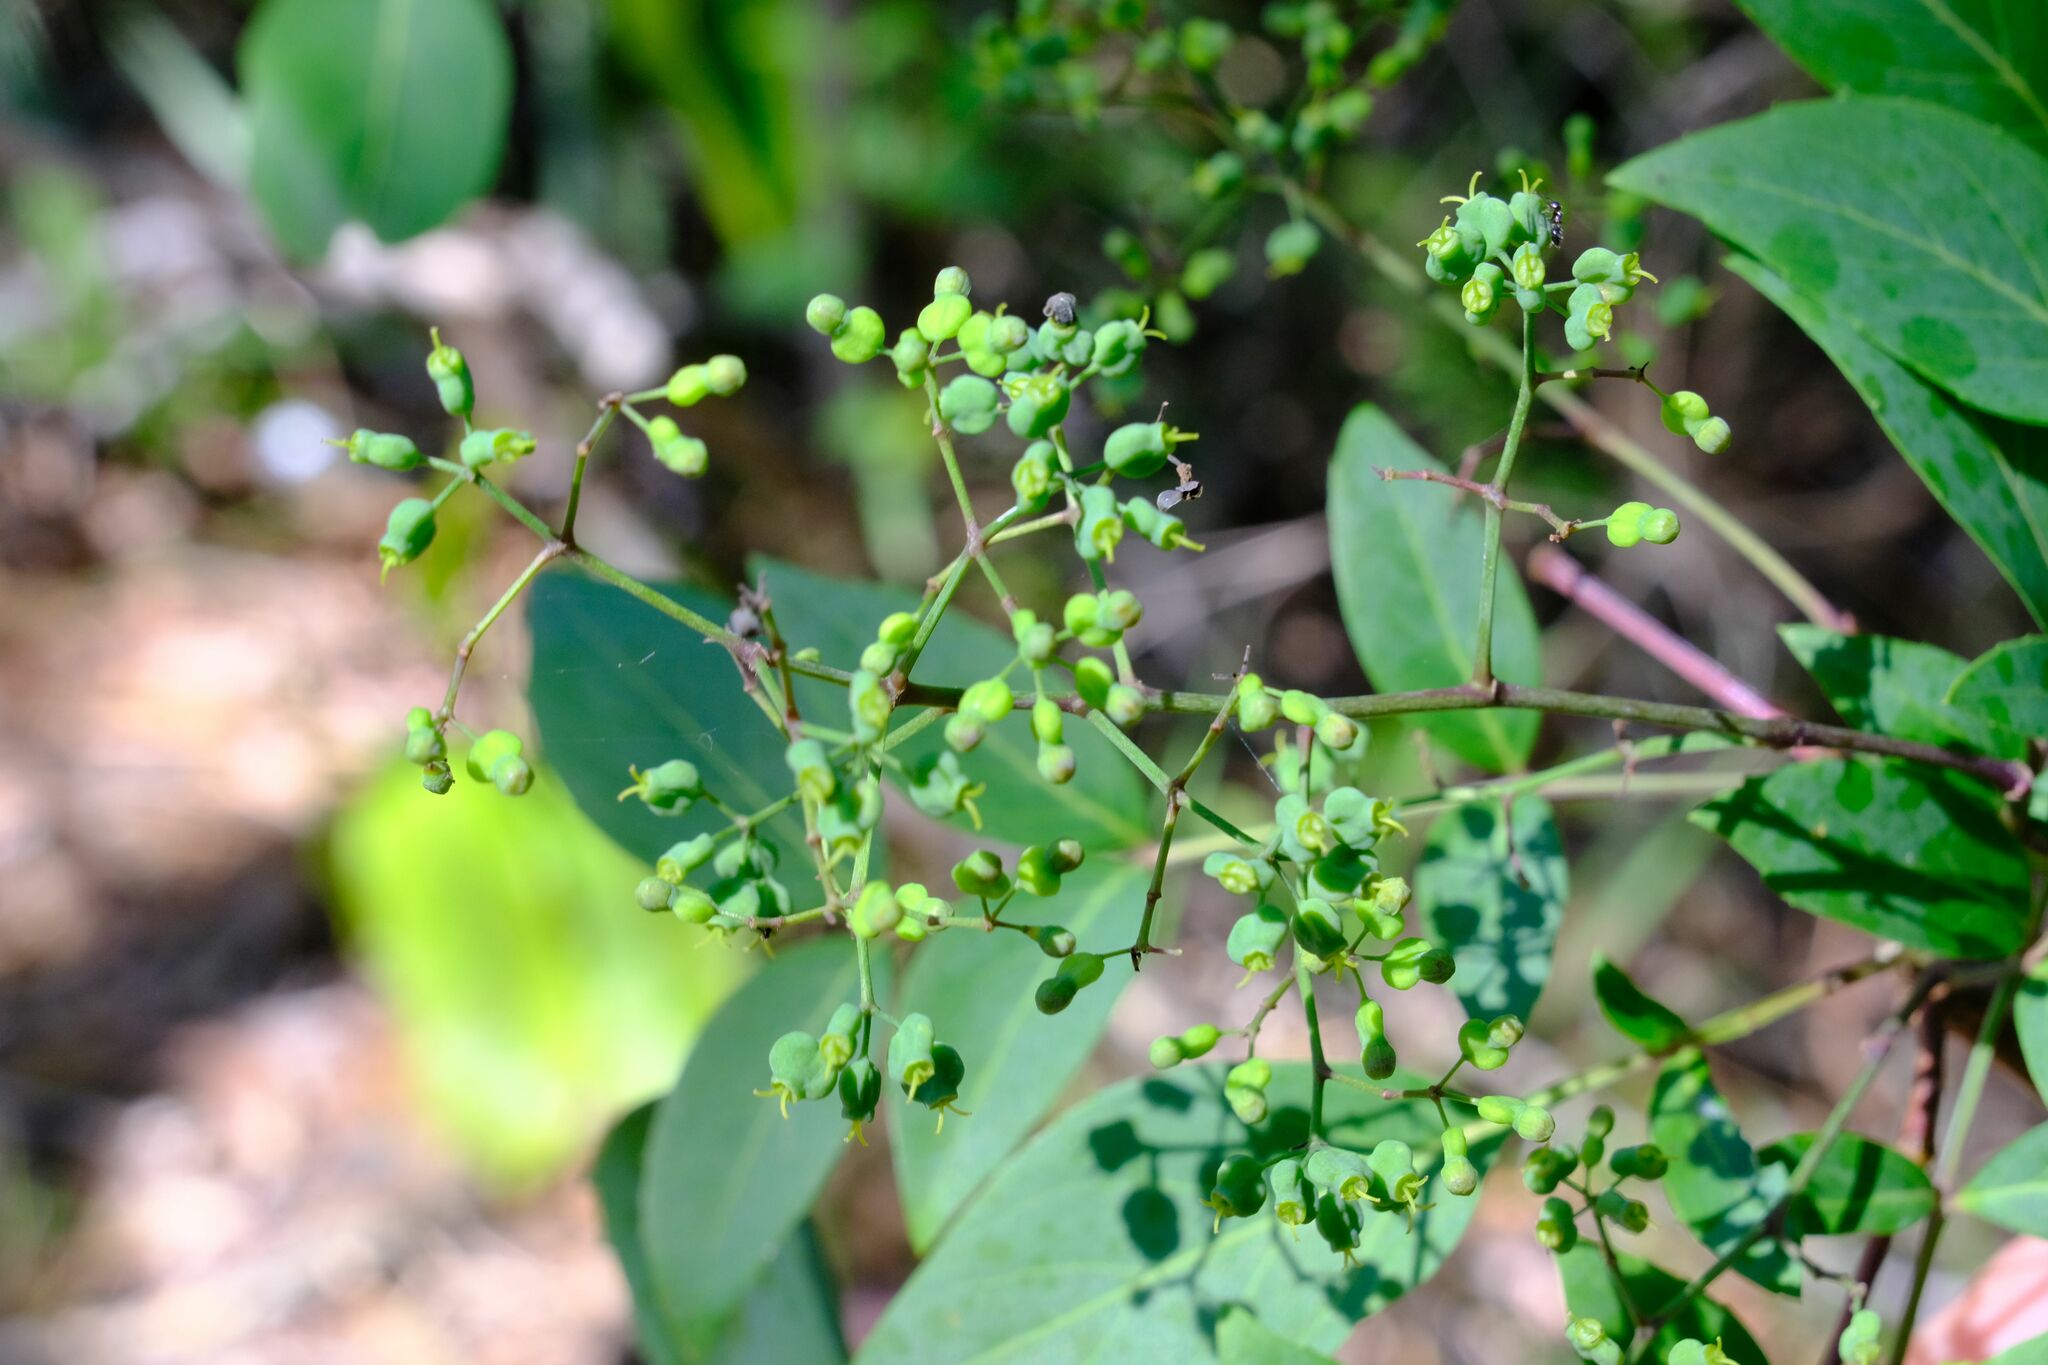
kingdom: Plantae
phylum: Tracheophyta
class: Magnoliopsida
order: Apiales
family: Araliaceae
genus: Polyscias
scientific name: Polyscias sambucifolia
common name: Elderberry-ash
